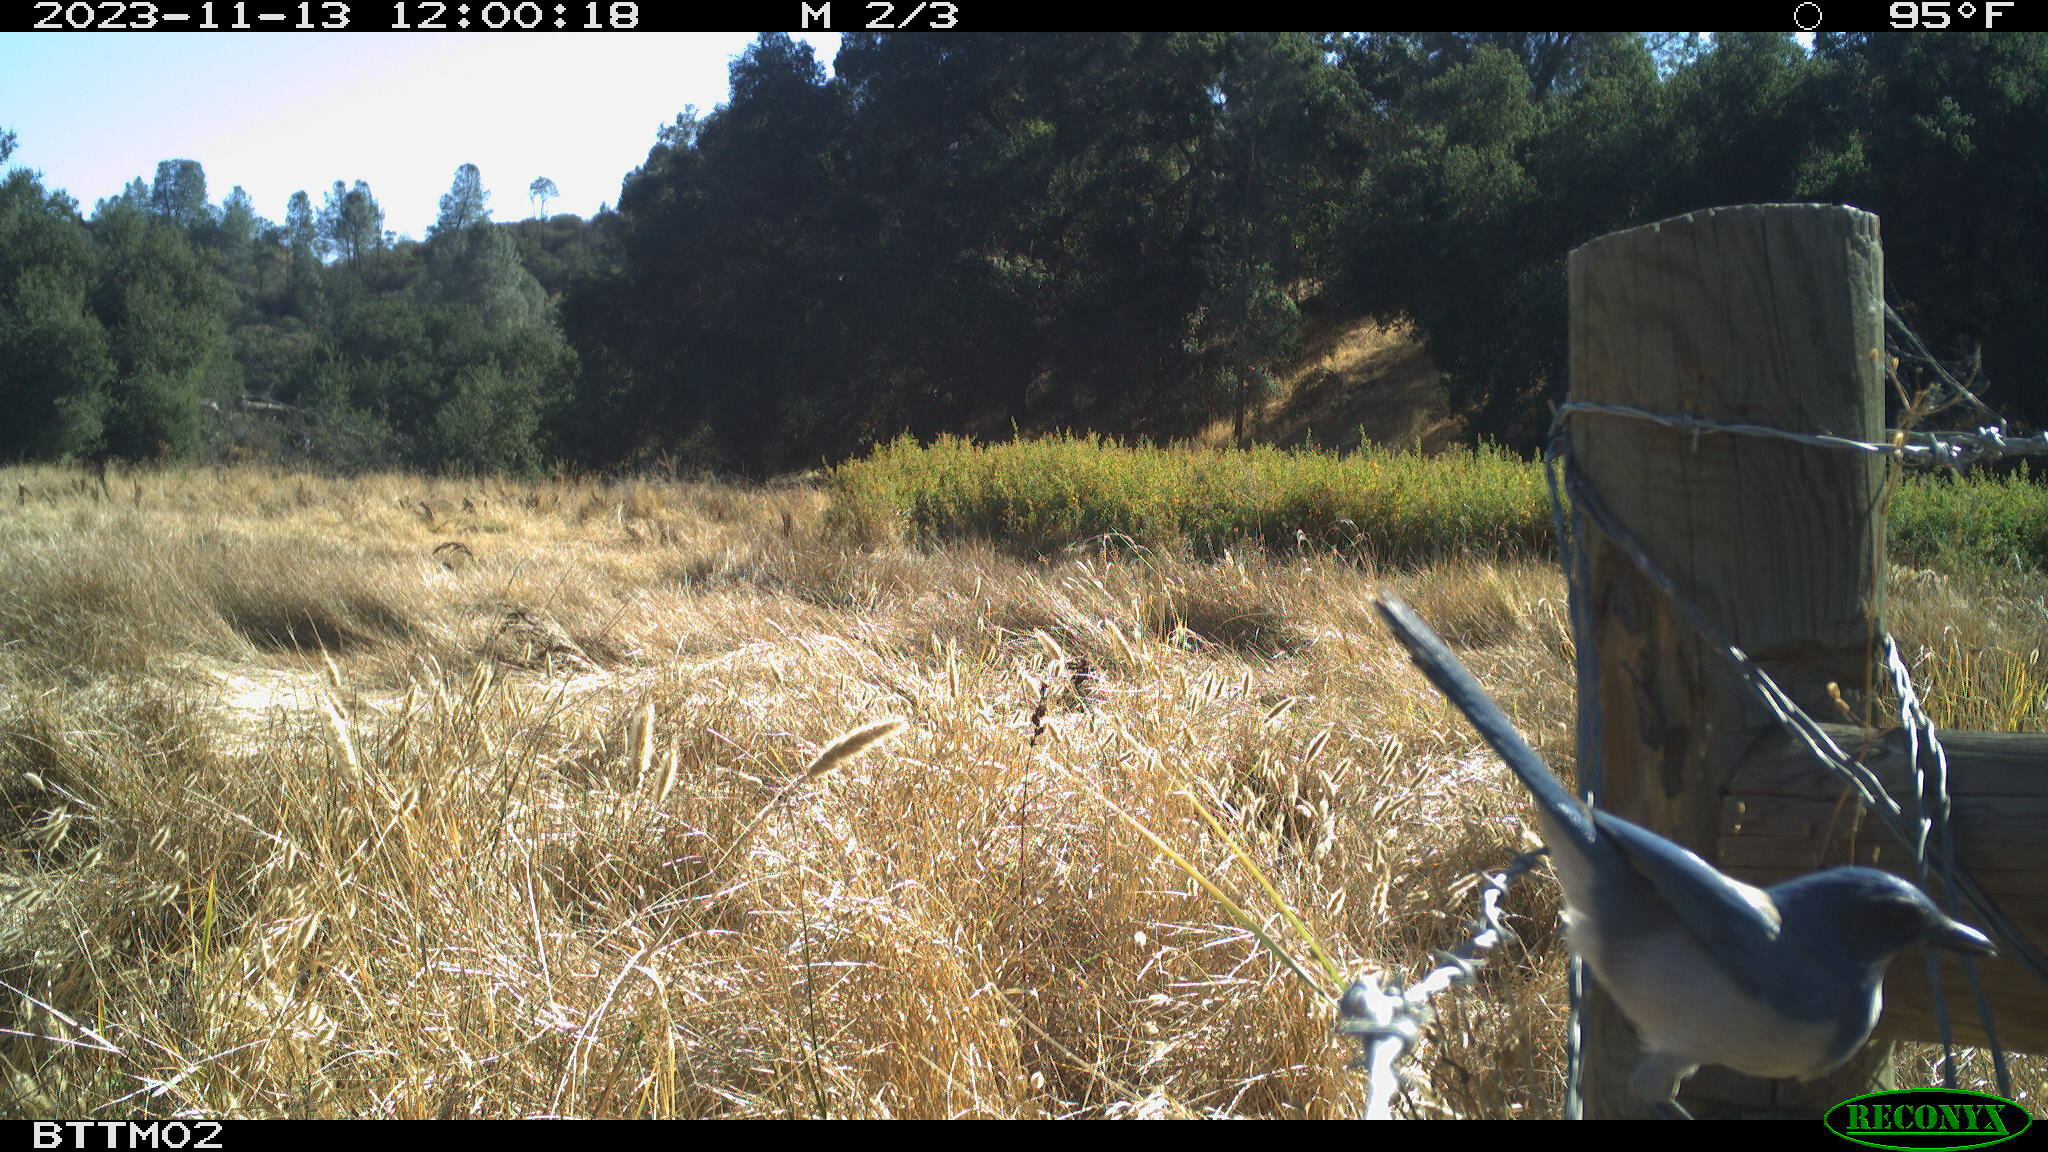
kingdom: Animalia
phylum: Chordata
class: Aves
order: Passeriformes
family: Corvidae
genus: Aphelocoma
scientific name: Aphelocoma californica
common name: California scrub-jay
